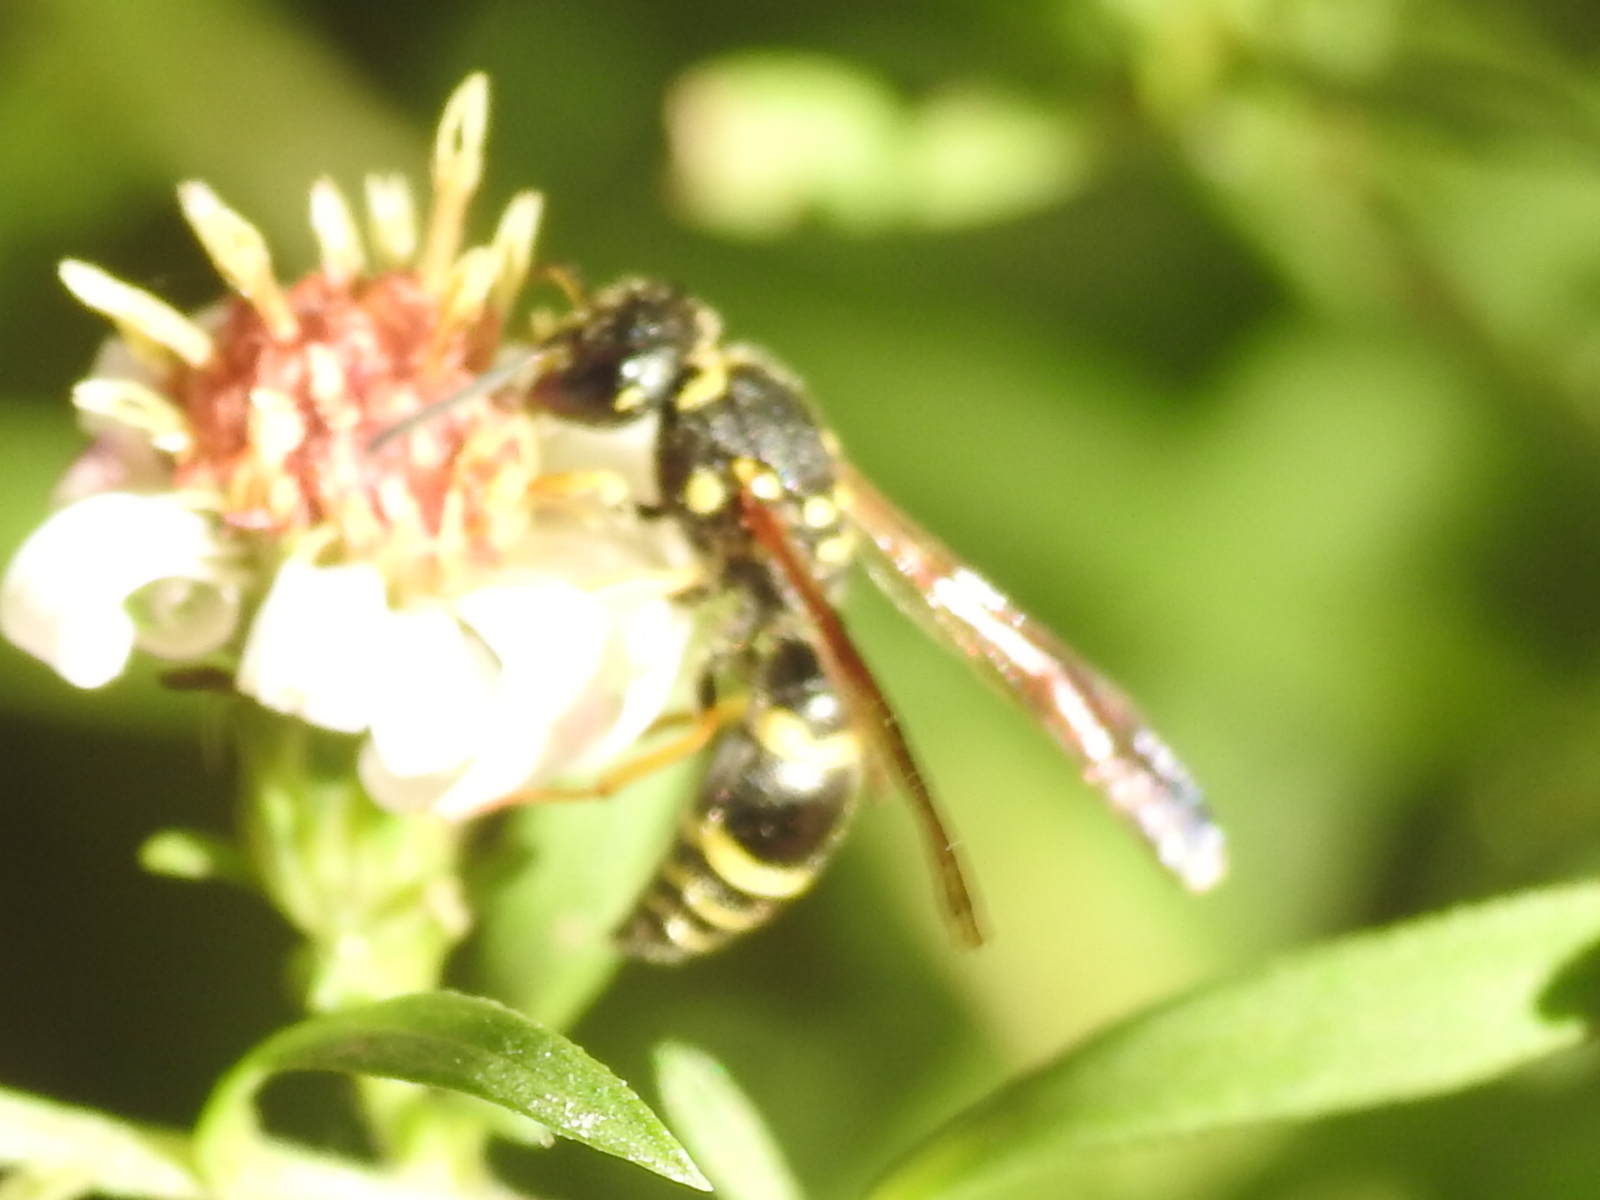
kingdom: Animalia
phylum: Arthropoda
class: Insecta
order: Hymenoptera
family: Vespidae
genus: Ancistrocerus
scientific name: Ancistrocerus adiabatus
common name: Bramble mason wasp
